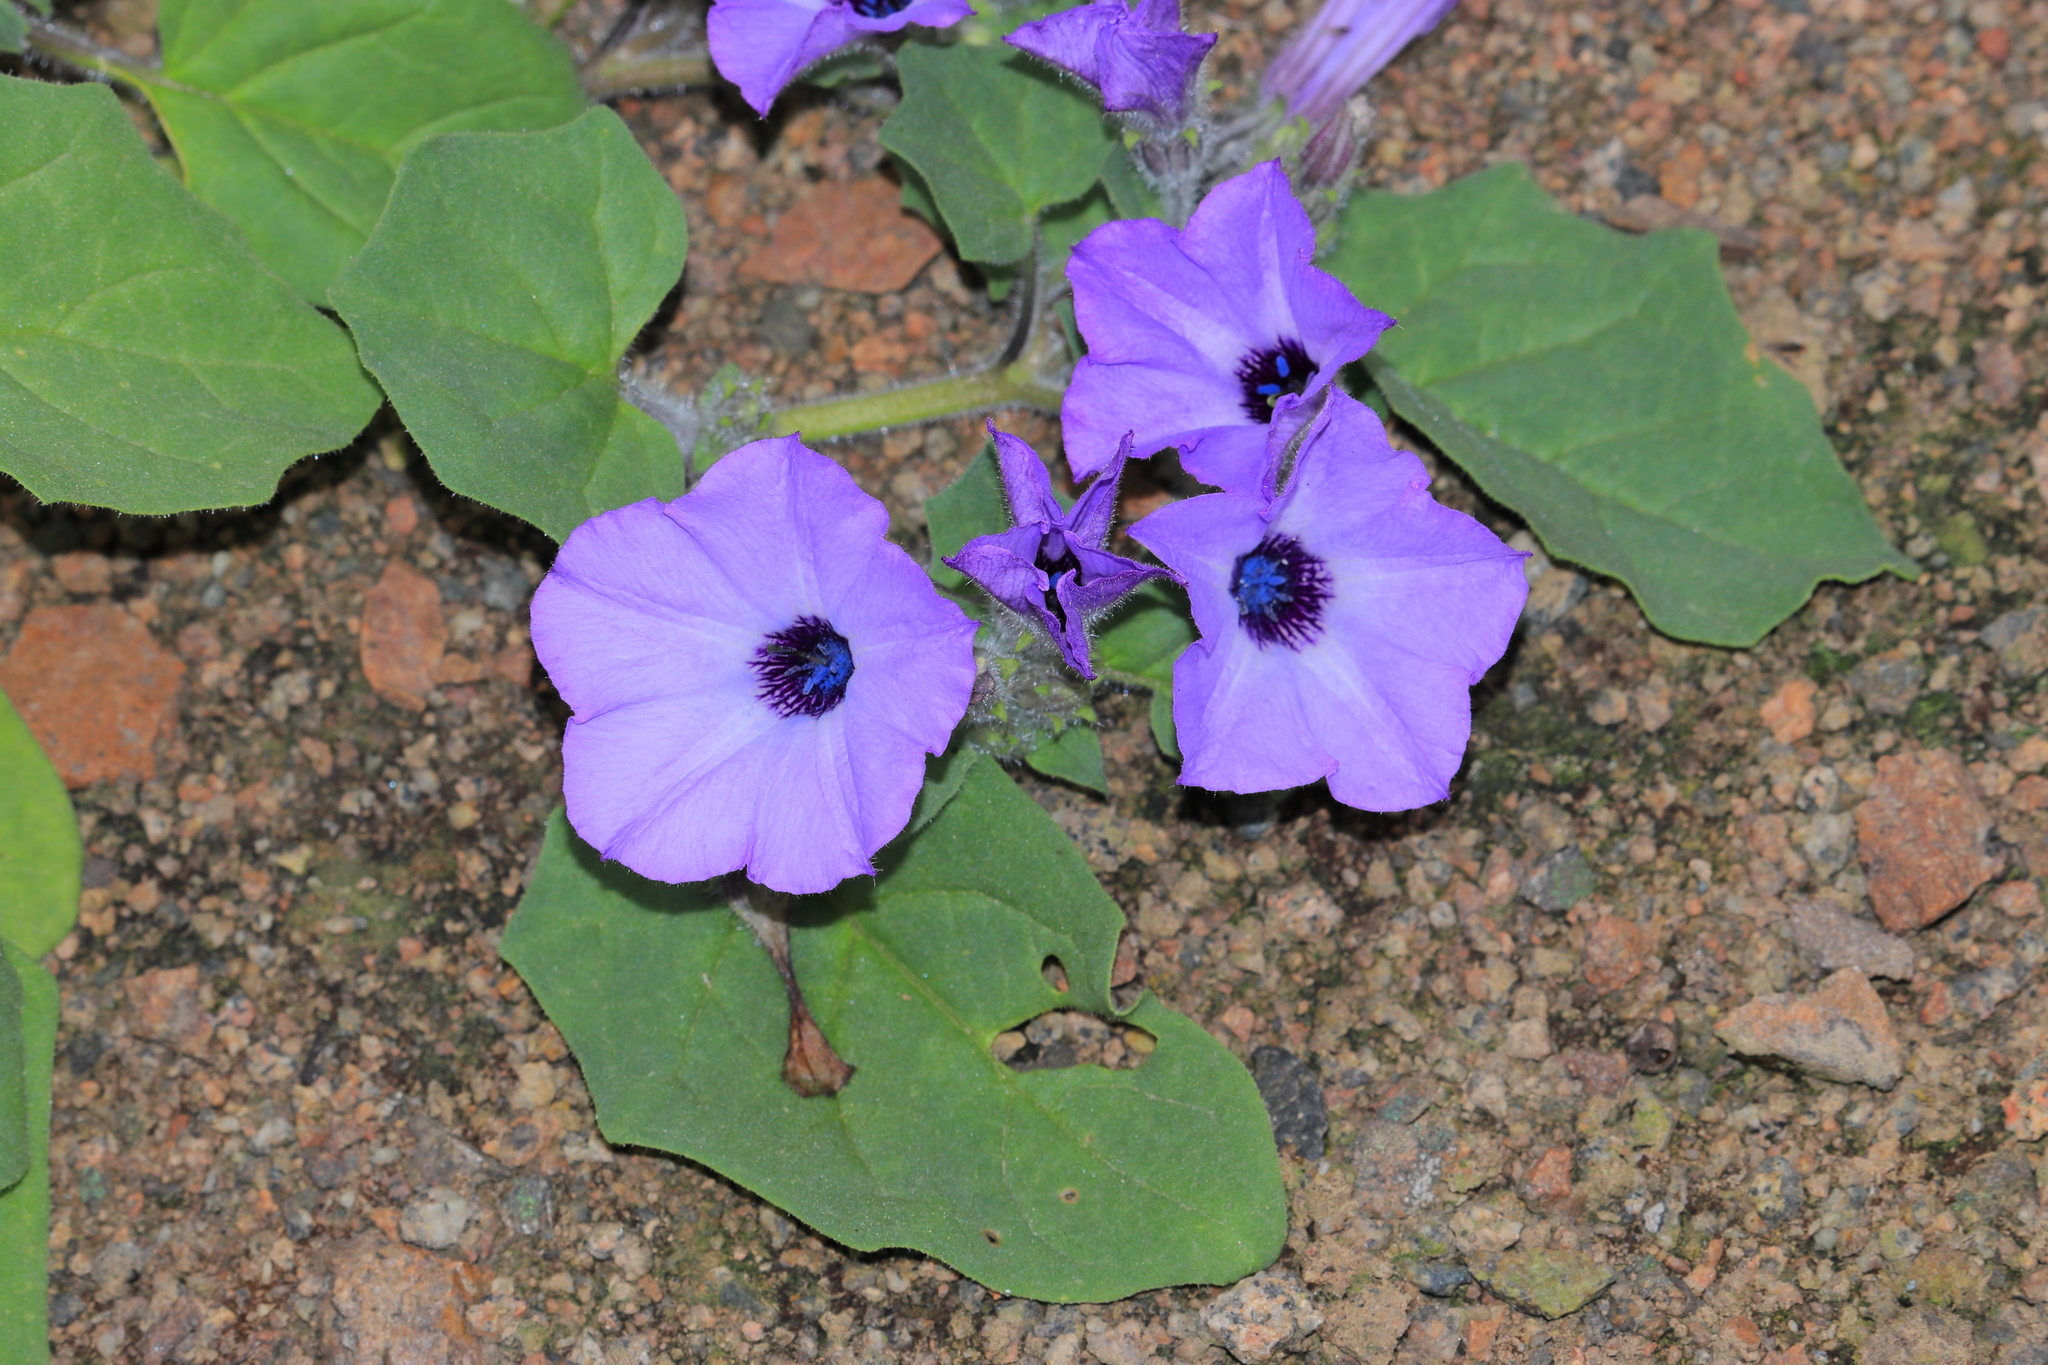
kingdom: Plantae
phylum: Tracheophyta
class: Magnoliopsida
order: Solanales
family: Solanaceae
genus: Exodeconus
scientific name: Exodeconus prostratus
